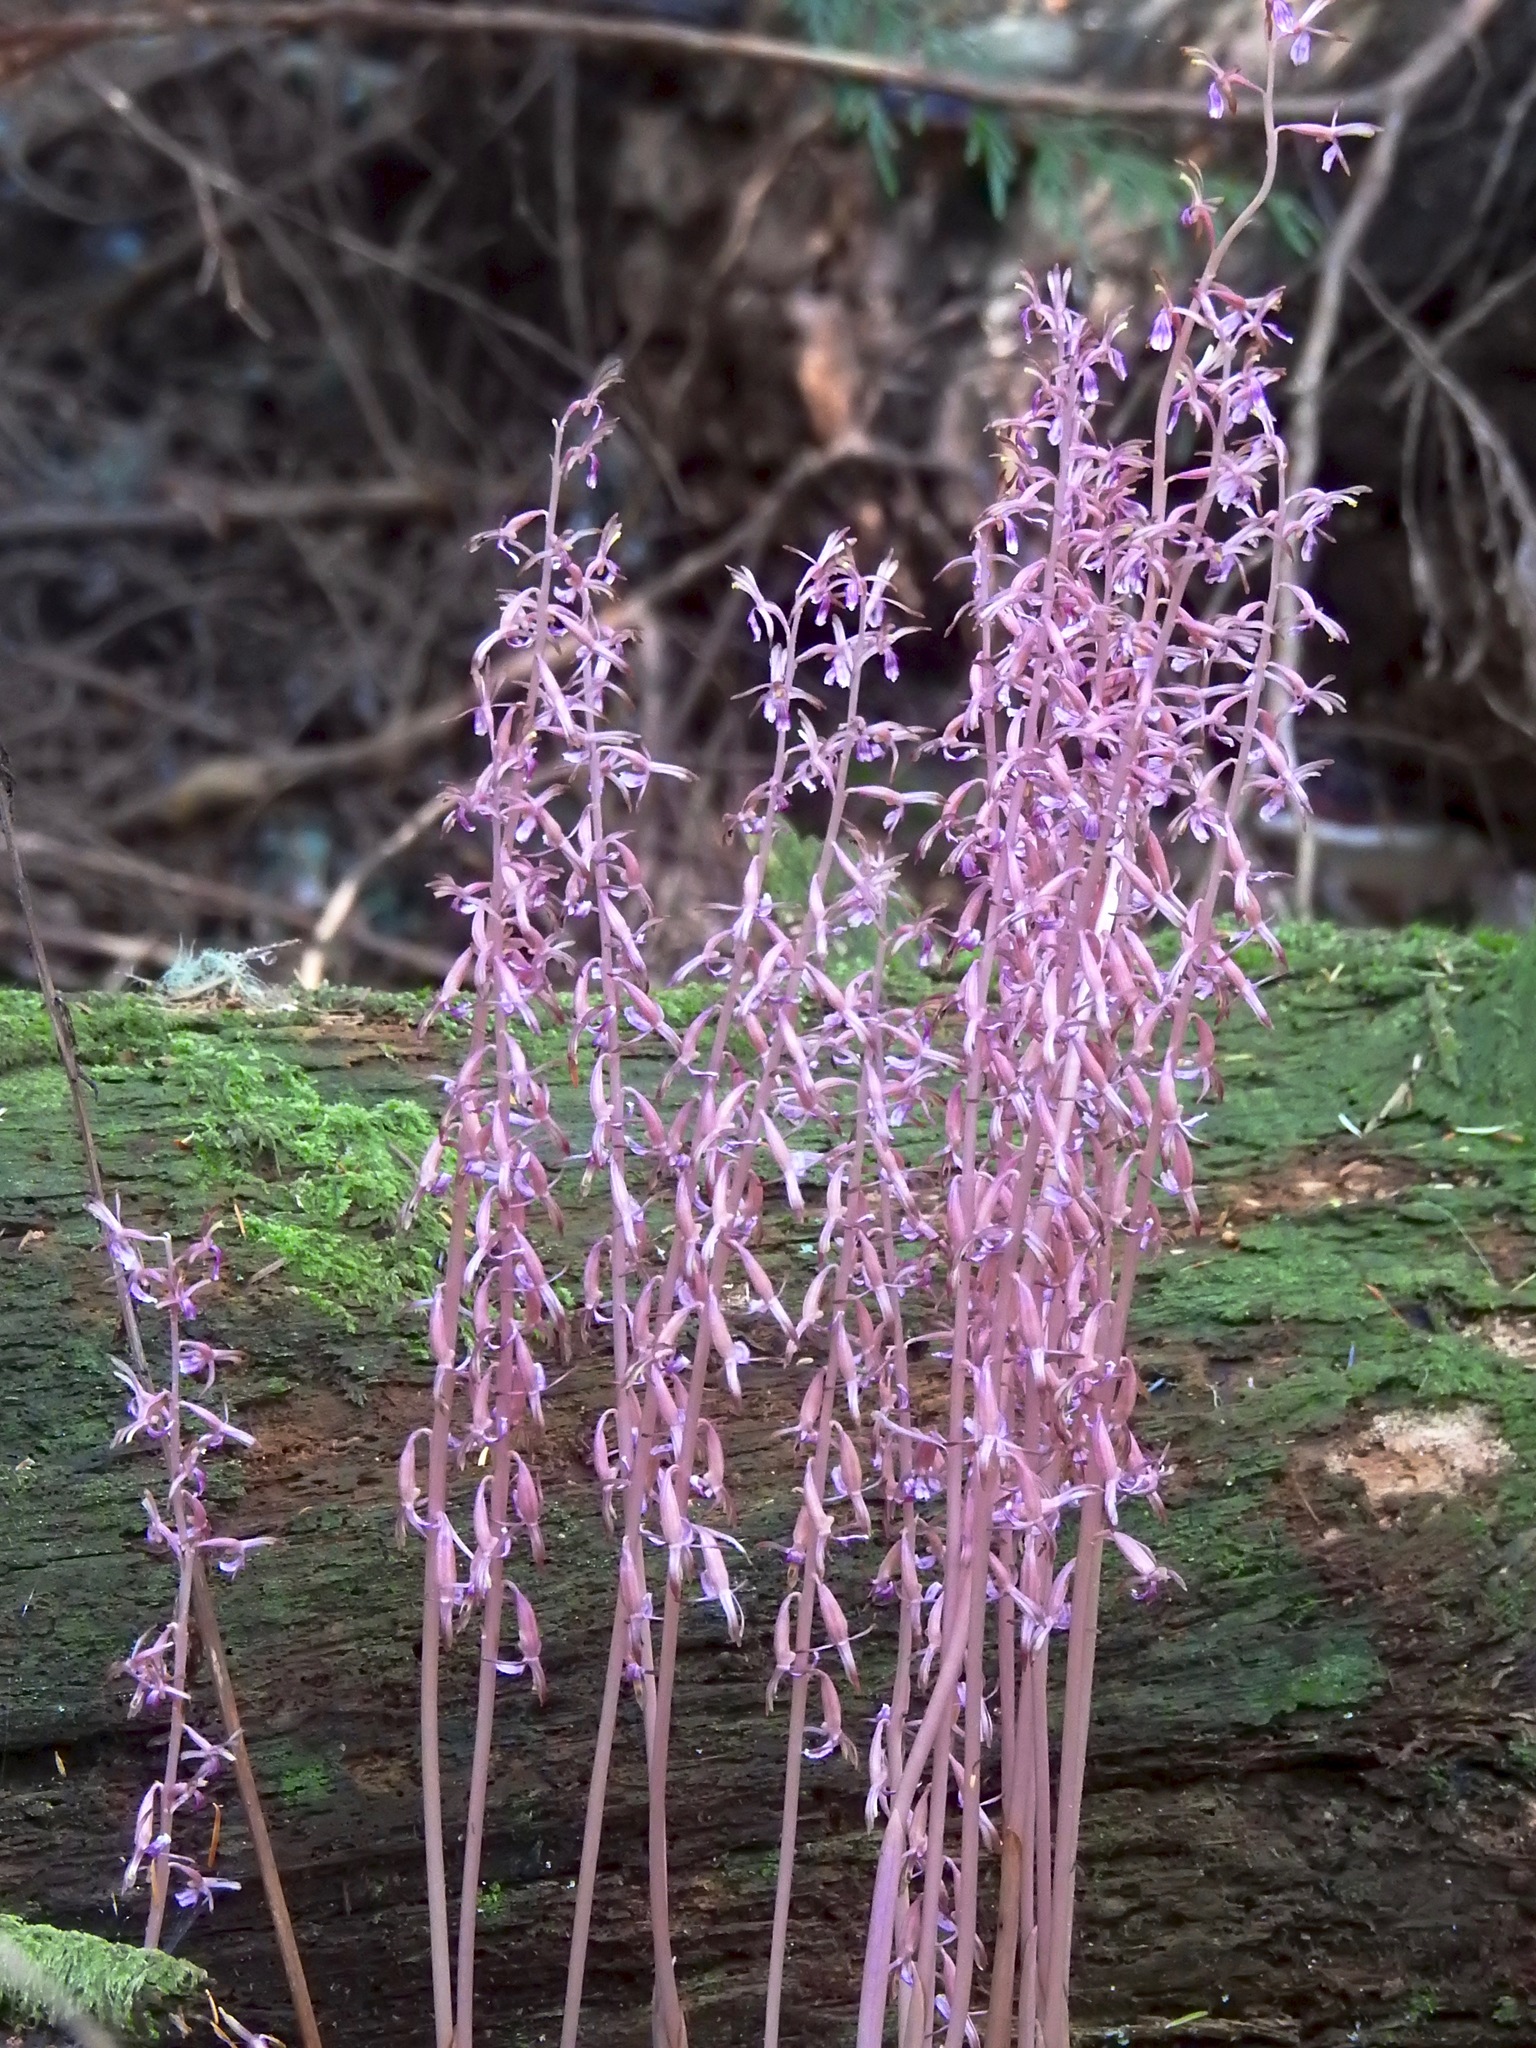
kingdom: Plantae
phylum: Tracheophyta
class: Liliopsida
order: Asparagales
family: Orchidaceae
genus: Corallorhiza
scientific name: Corallorhiza mertensiana
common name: Pacific coralroot
